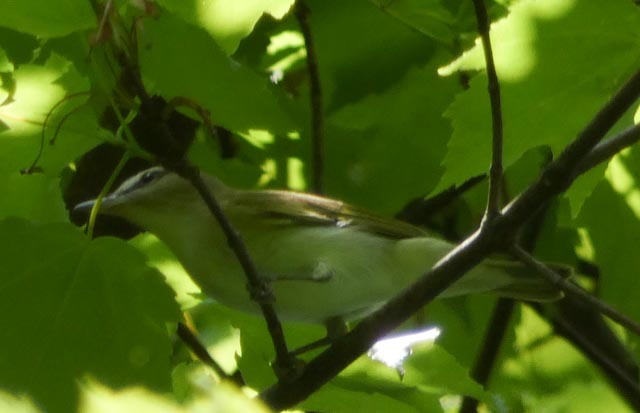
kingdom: Animalia
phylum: Chordata
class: Aves
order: Passeriformes
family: Vireonidae
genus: Vireo
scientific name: Vireo olivaceus
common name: Red-eyed vireo
